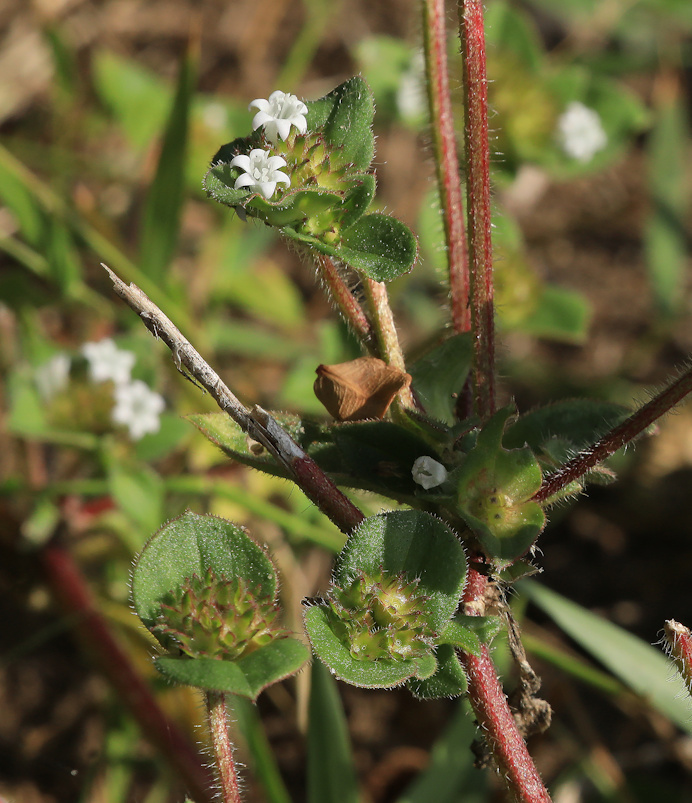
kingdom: Plantae
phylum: Tracheophyta
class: Magnoliopsida
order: Gentianales
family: Rubiaceae
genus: Richardia
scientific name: Richardia brasiliensis
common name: Tropical mexican clover
